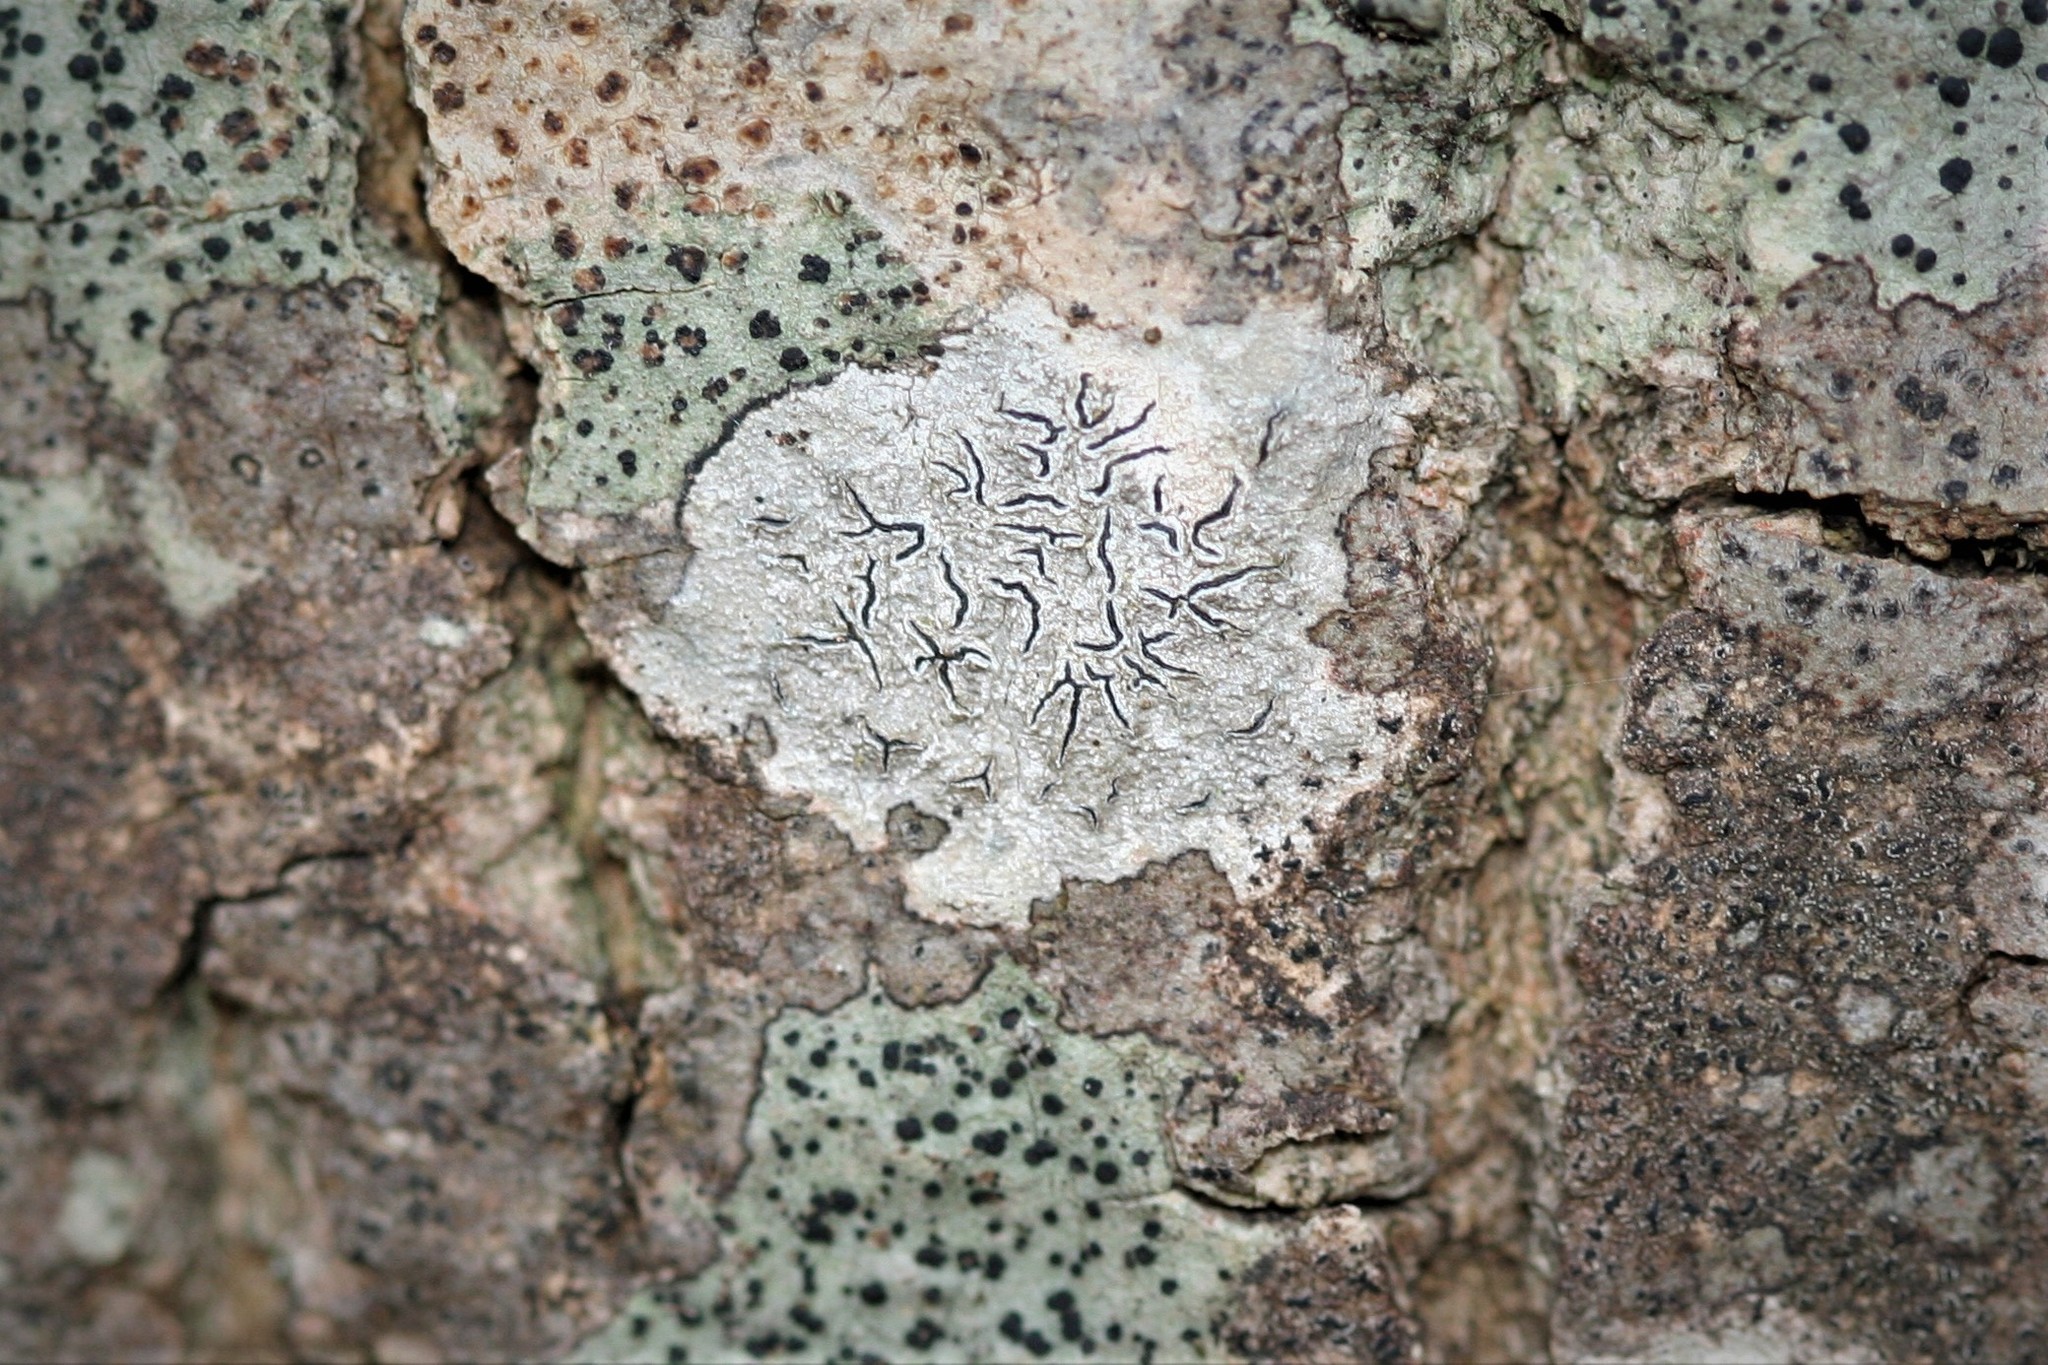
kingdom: Fungi
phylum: Ascomycota
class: Lecanoromycetes
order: Ostropales
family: Graphidaceae
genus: Graphis
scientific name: Graphis scripta
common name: Script lichen
